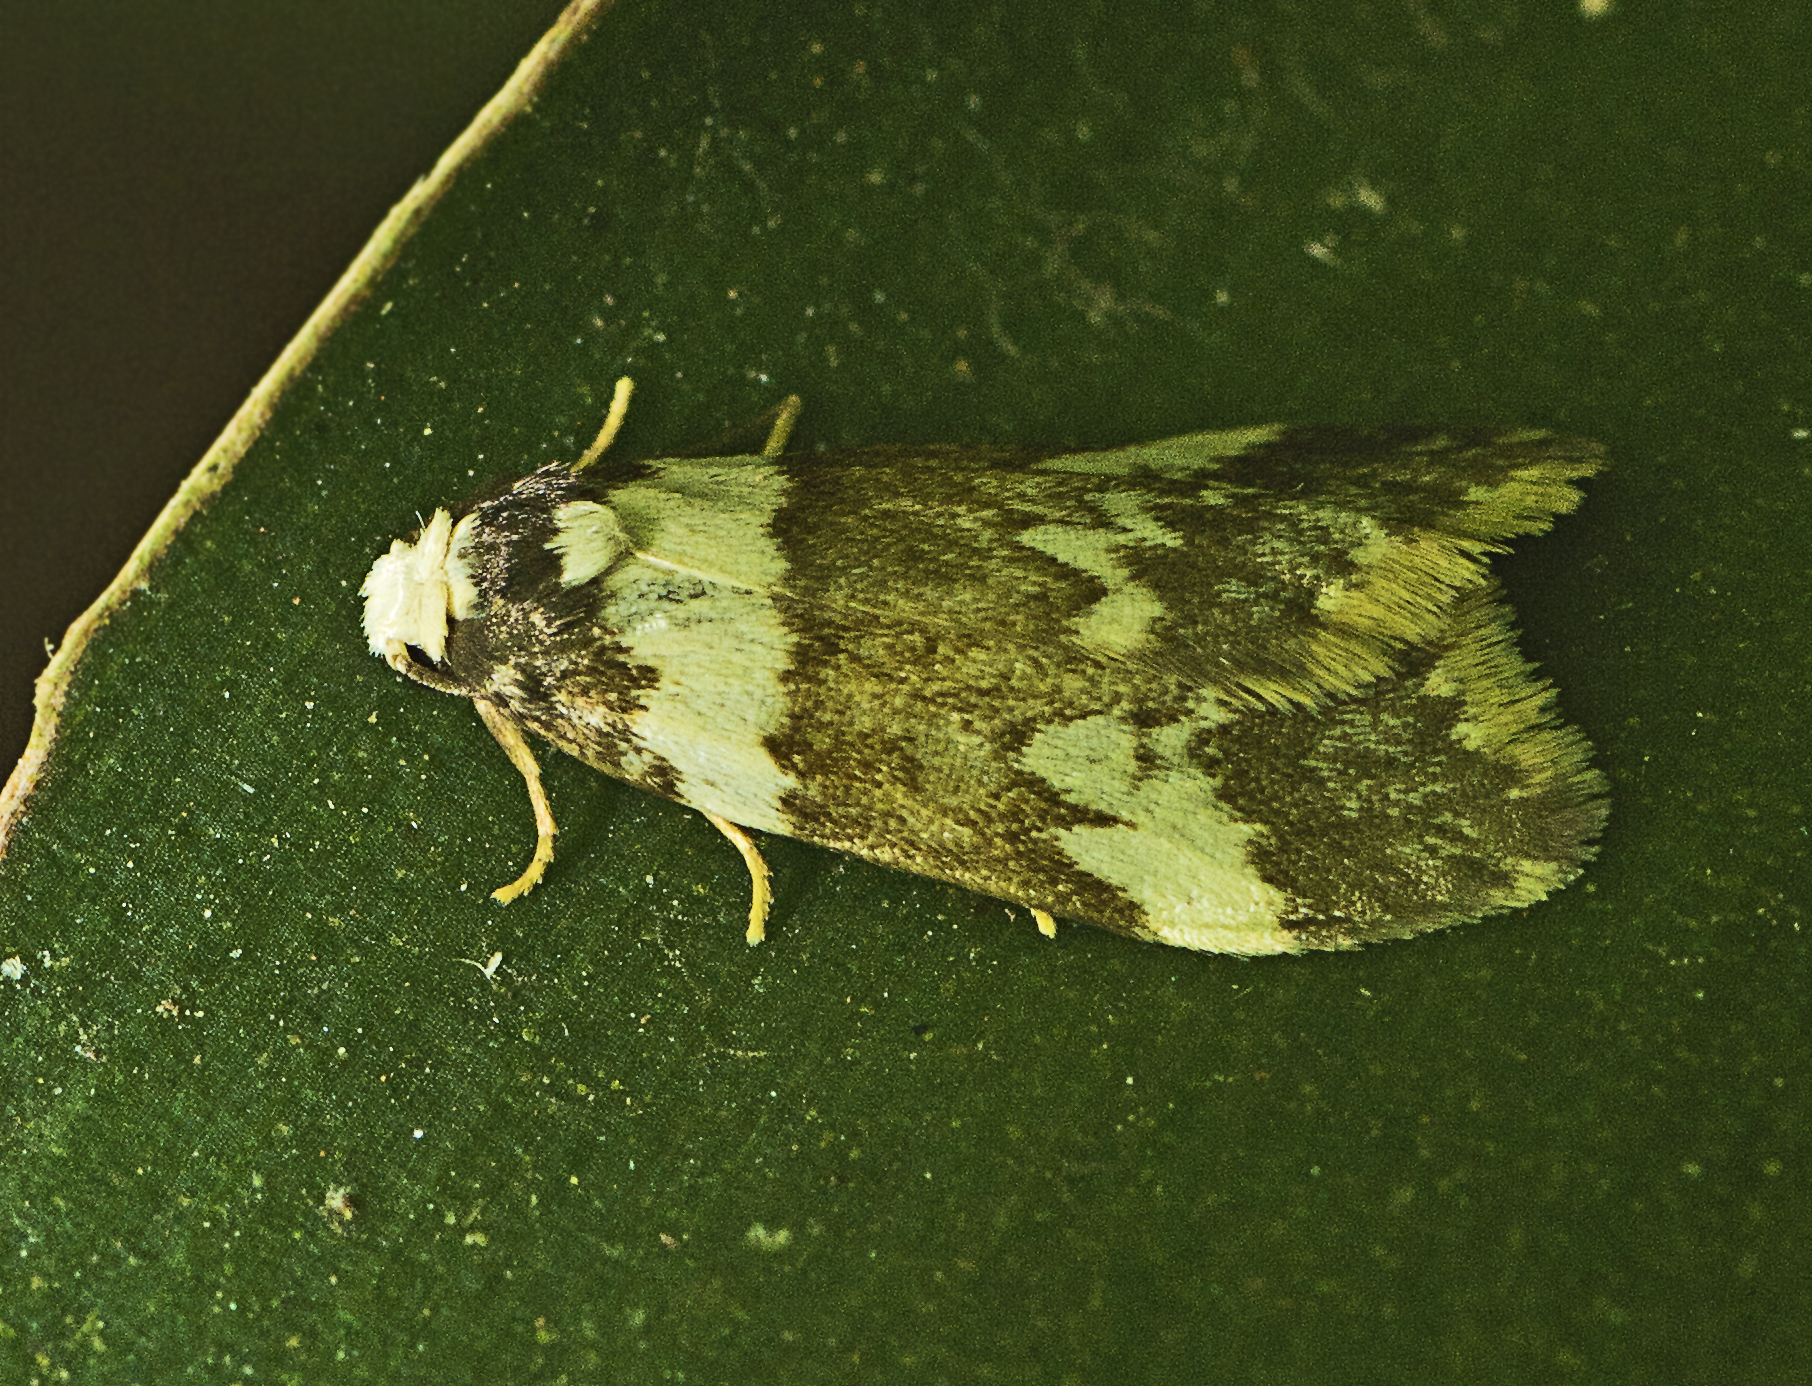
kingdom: Animalia
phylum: Arthropoda
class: Insecta
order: Lepidoptera
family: Erebidae
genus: Halone
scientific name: Halone sejuncta
